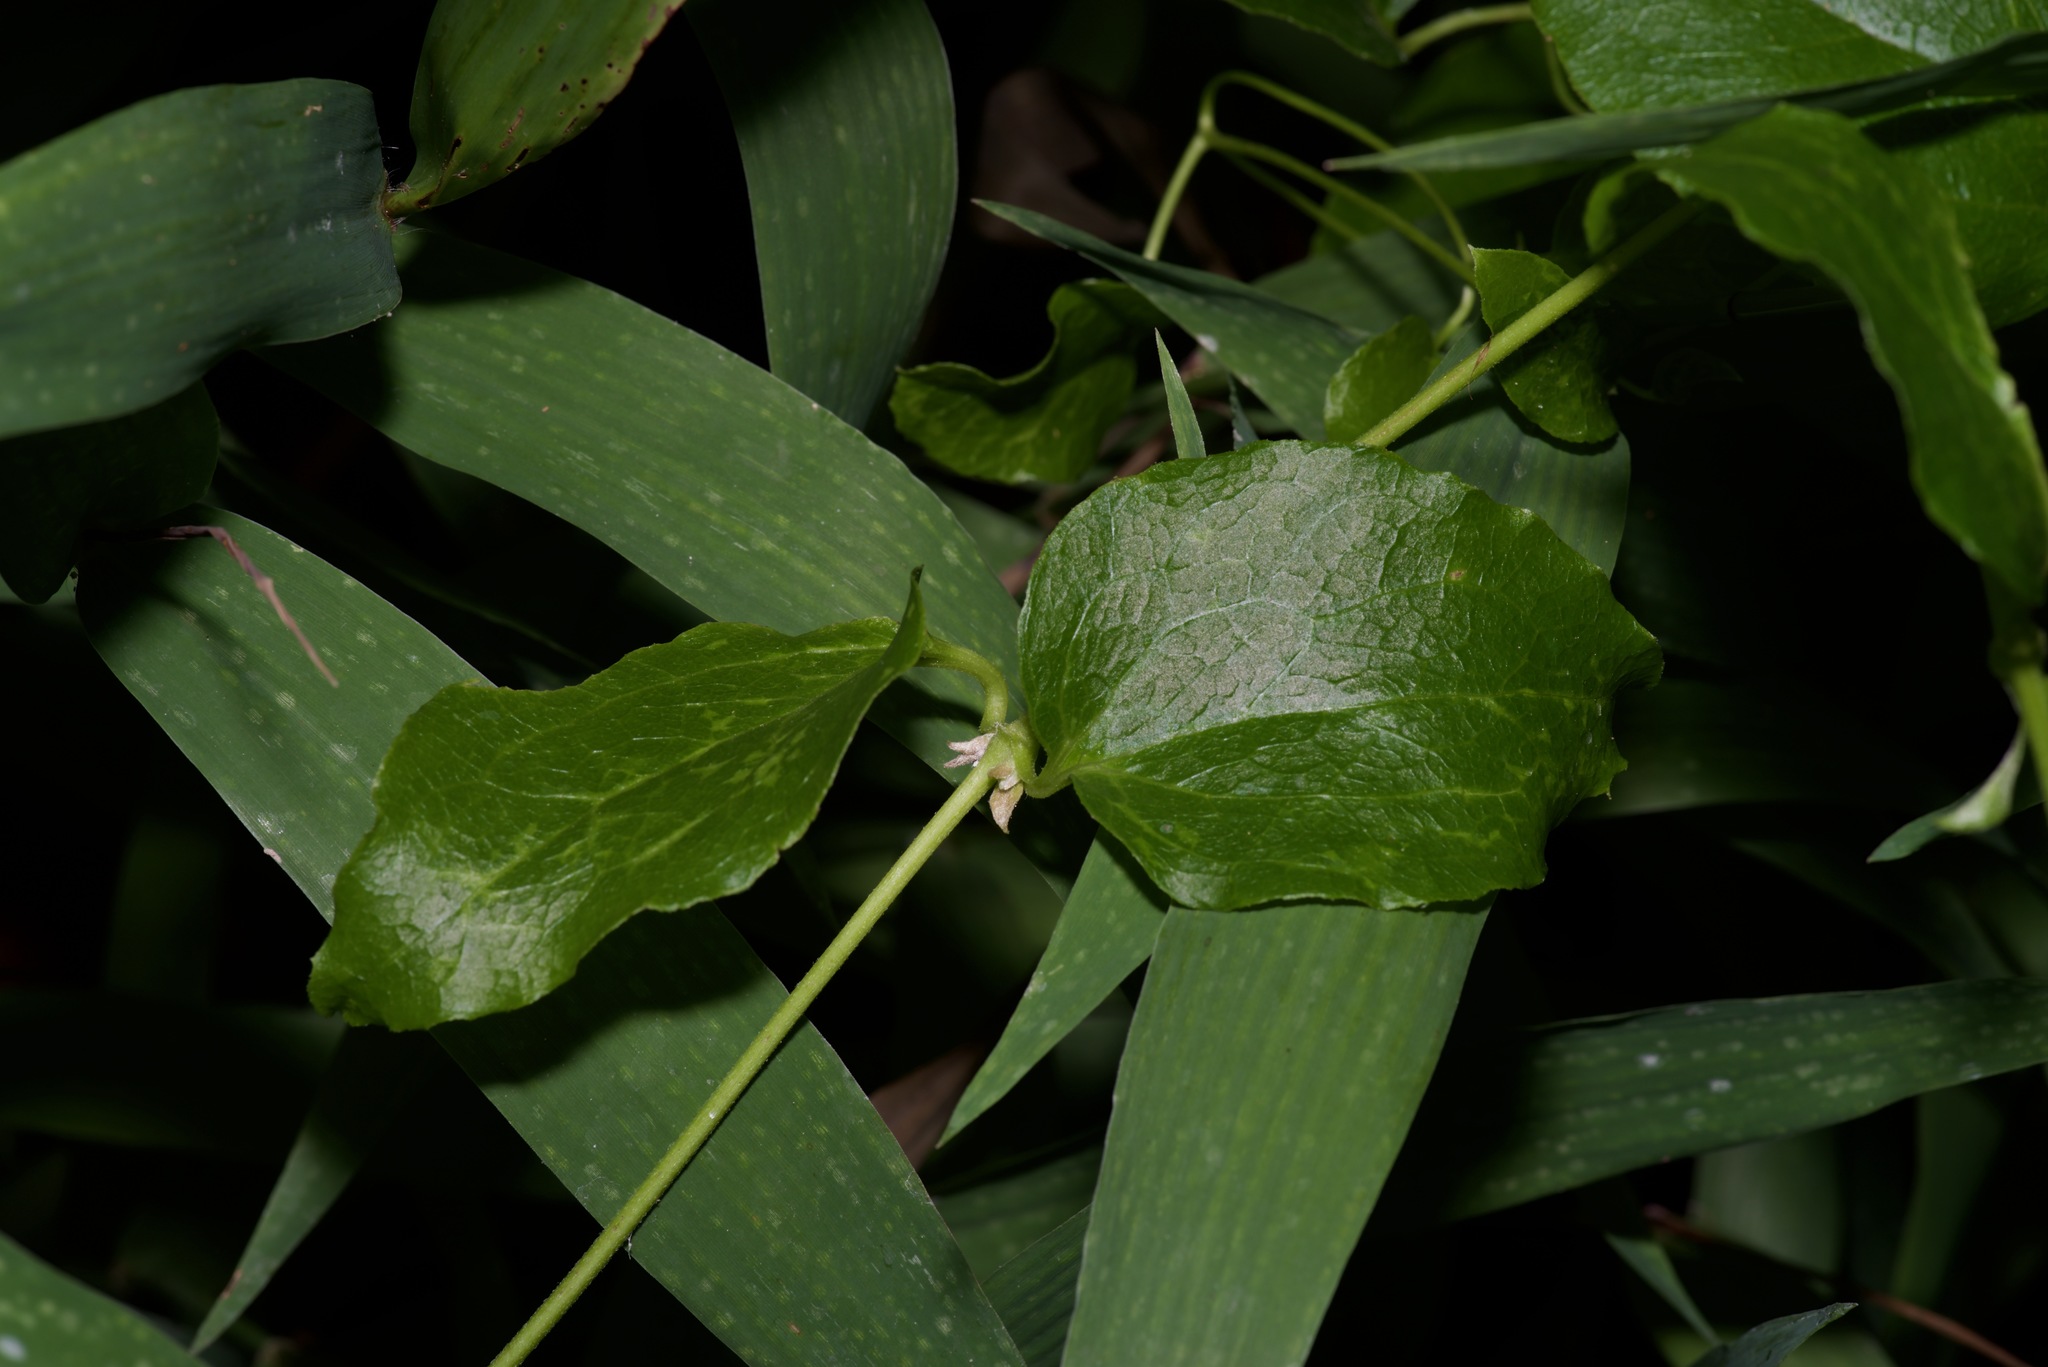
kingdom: Plantae
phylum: Tracheophyta
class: Magnoliopsida
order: Ranunculales
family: Ranunculaceae
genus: Clematis
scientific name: Clematis pitcheri
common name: Bellflower clematis
